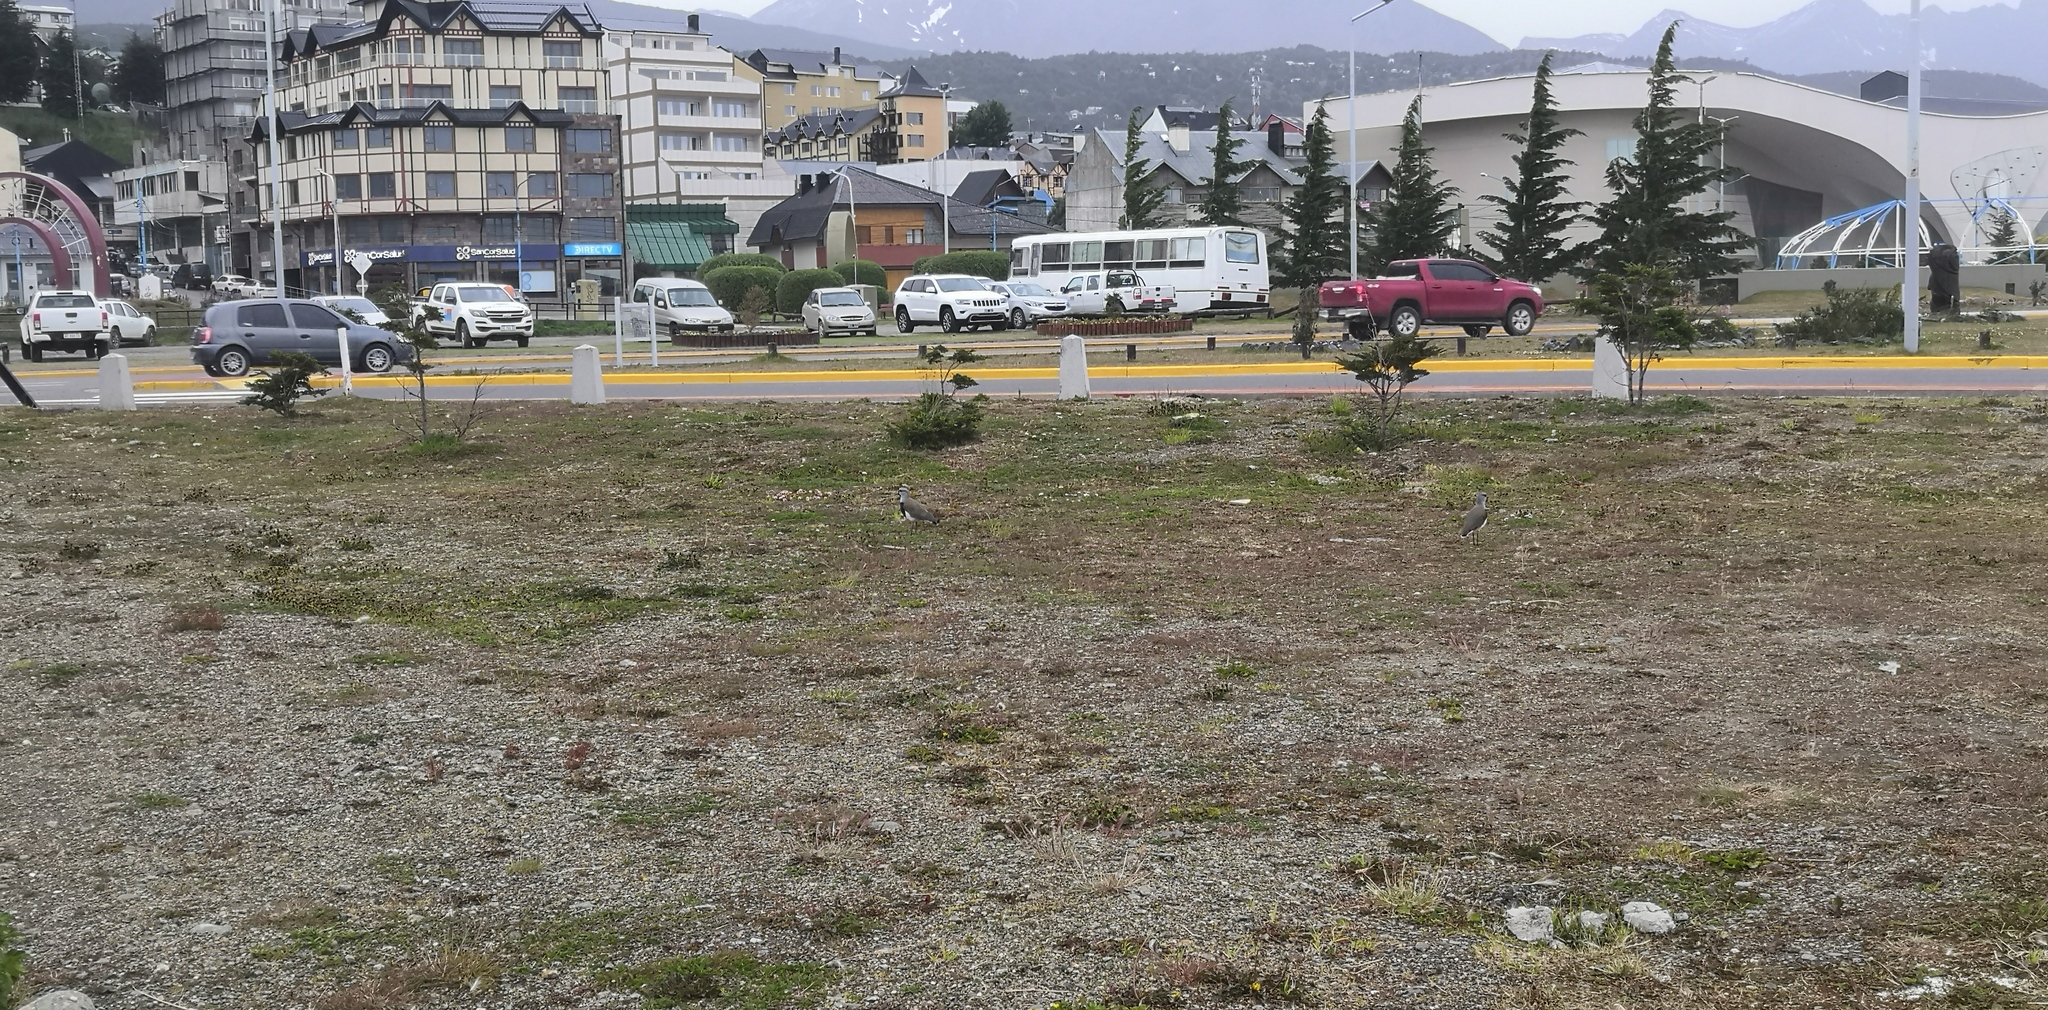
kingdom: Animalia
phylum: Chordata
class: Aves
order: Charadriiformes
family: Charadriidae
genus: Vanellus
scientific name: Vanellus chilensis
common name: Southern lapwing
